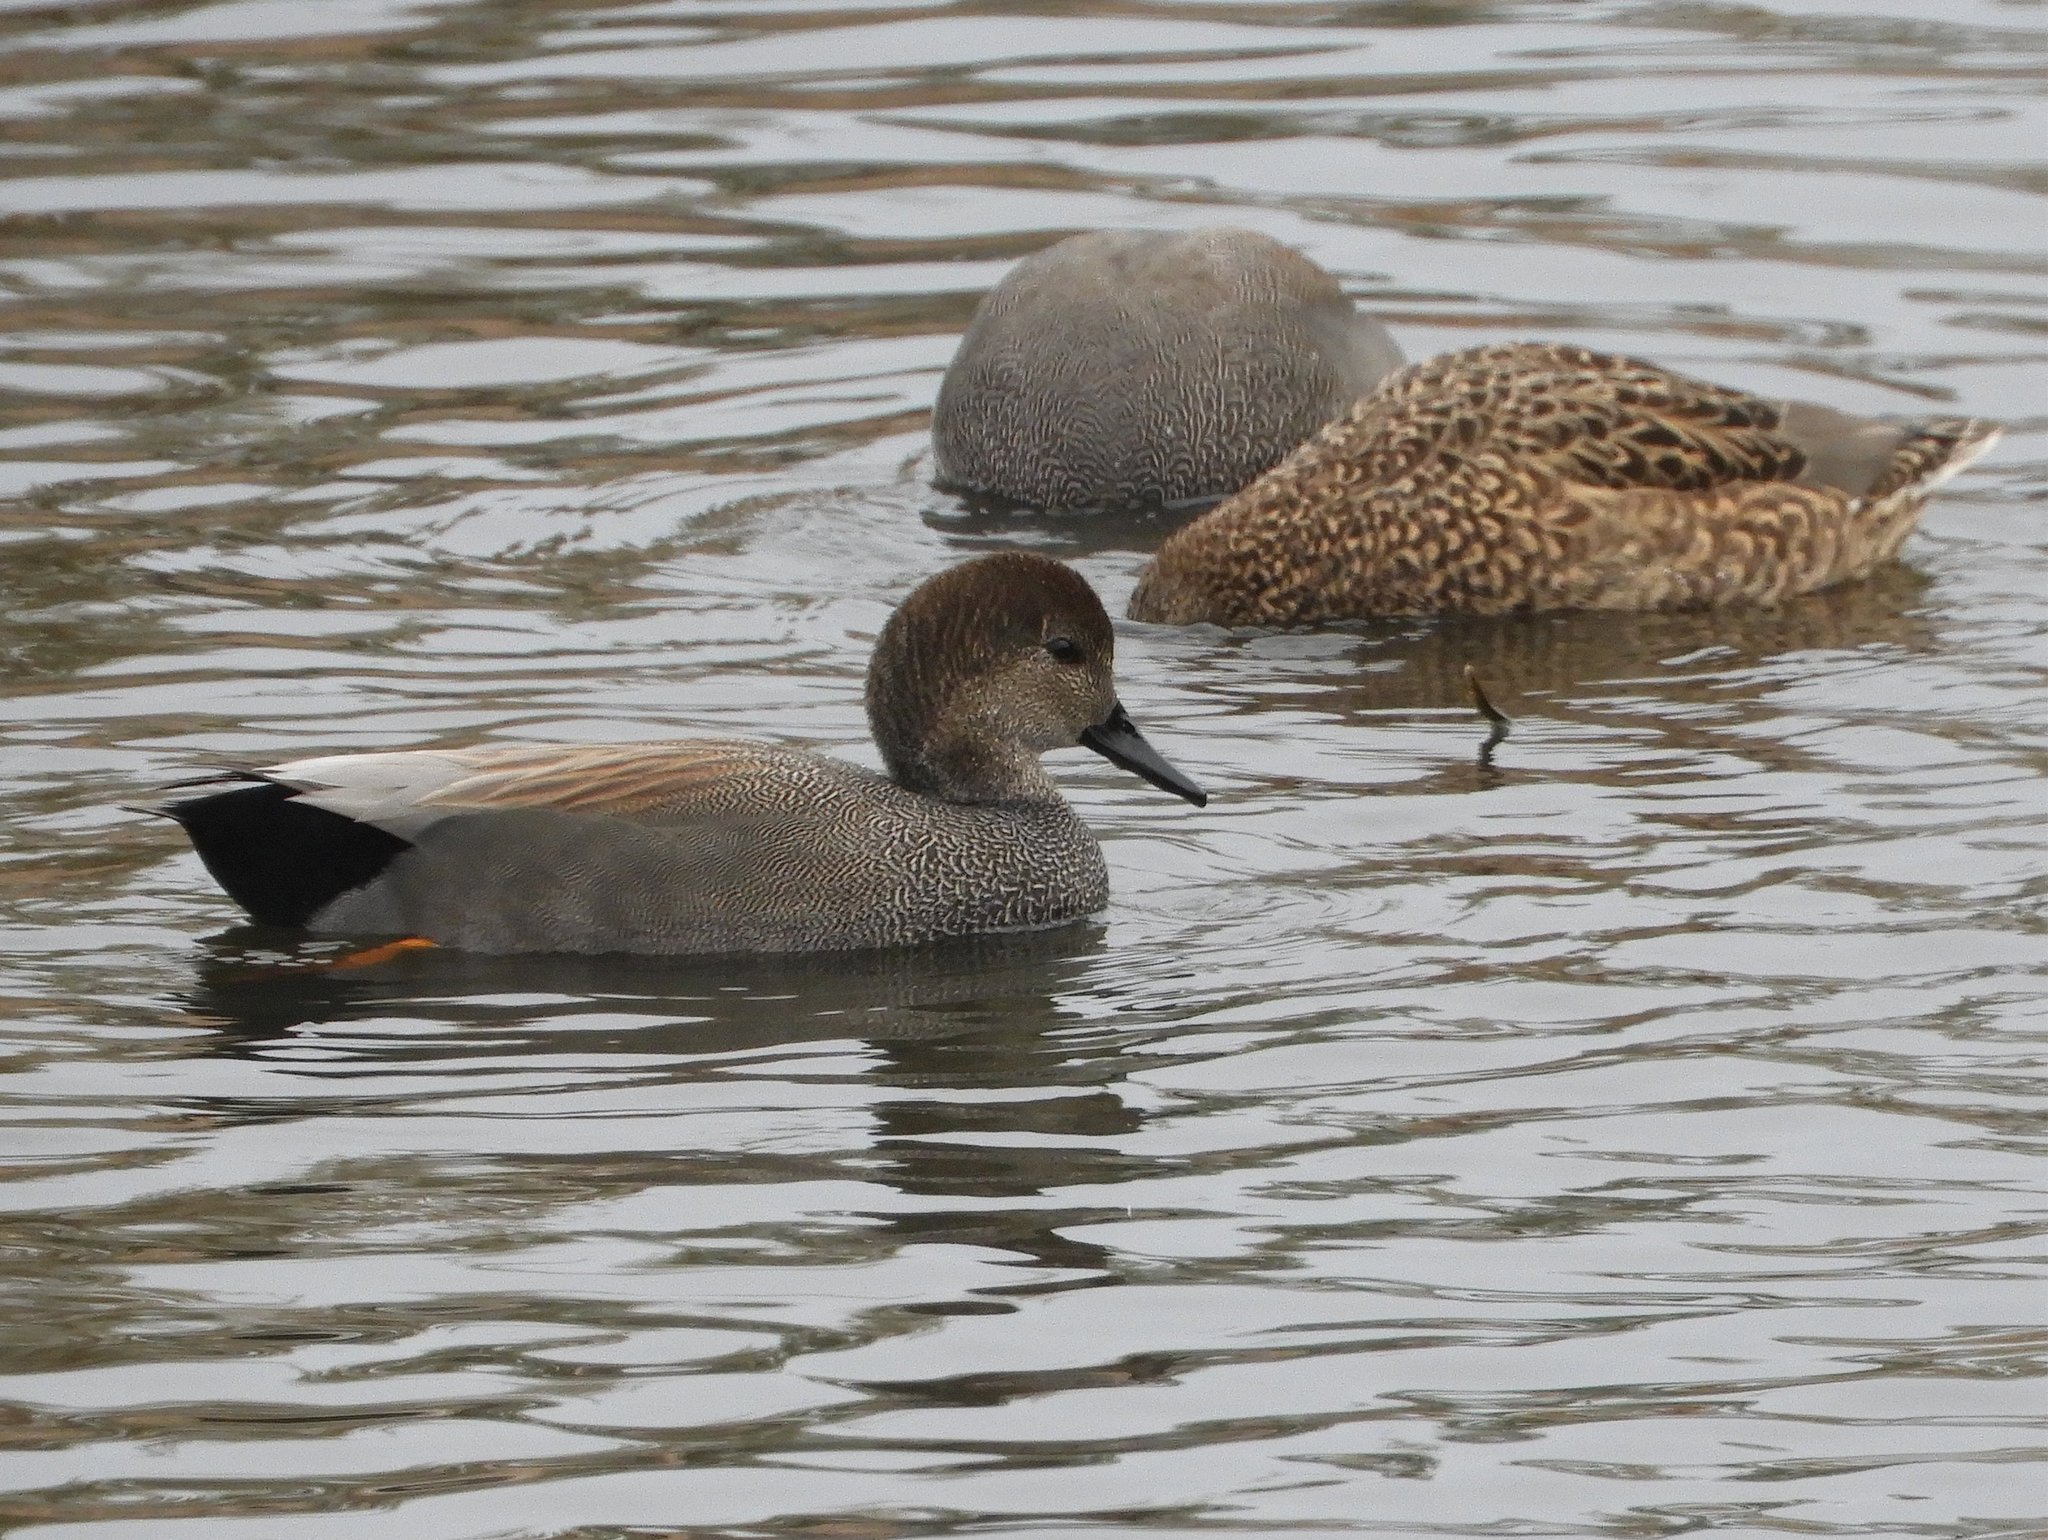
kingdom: Animalia
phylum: Chordata
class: Aves
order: Anseriformes
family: Anatidae
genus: Mareca
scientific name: Mareca strepera
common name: Gadwall
